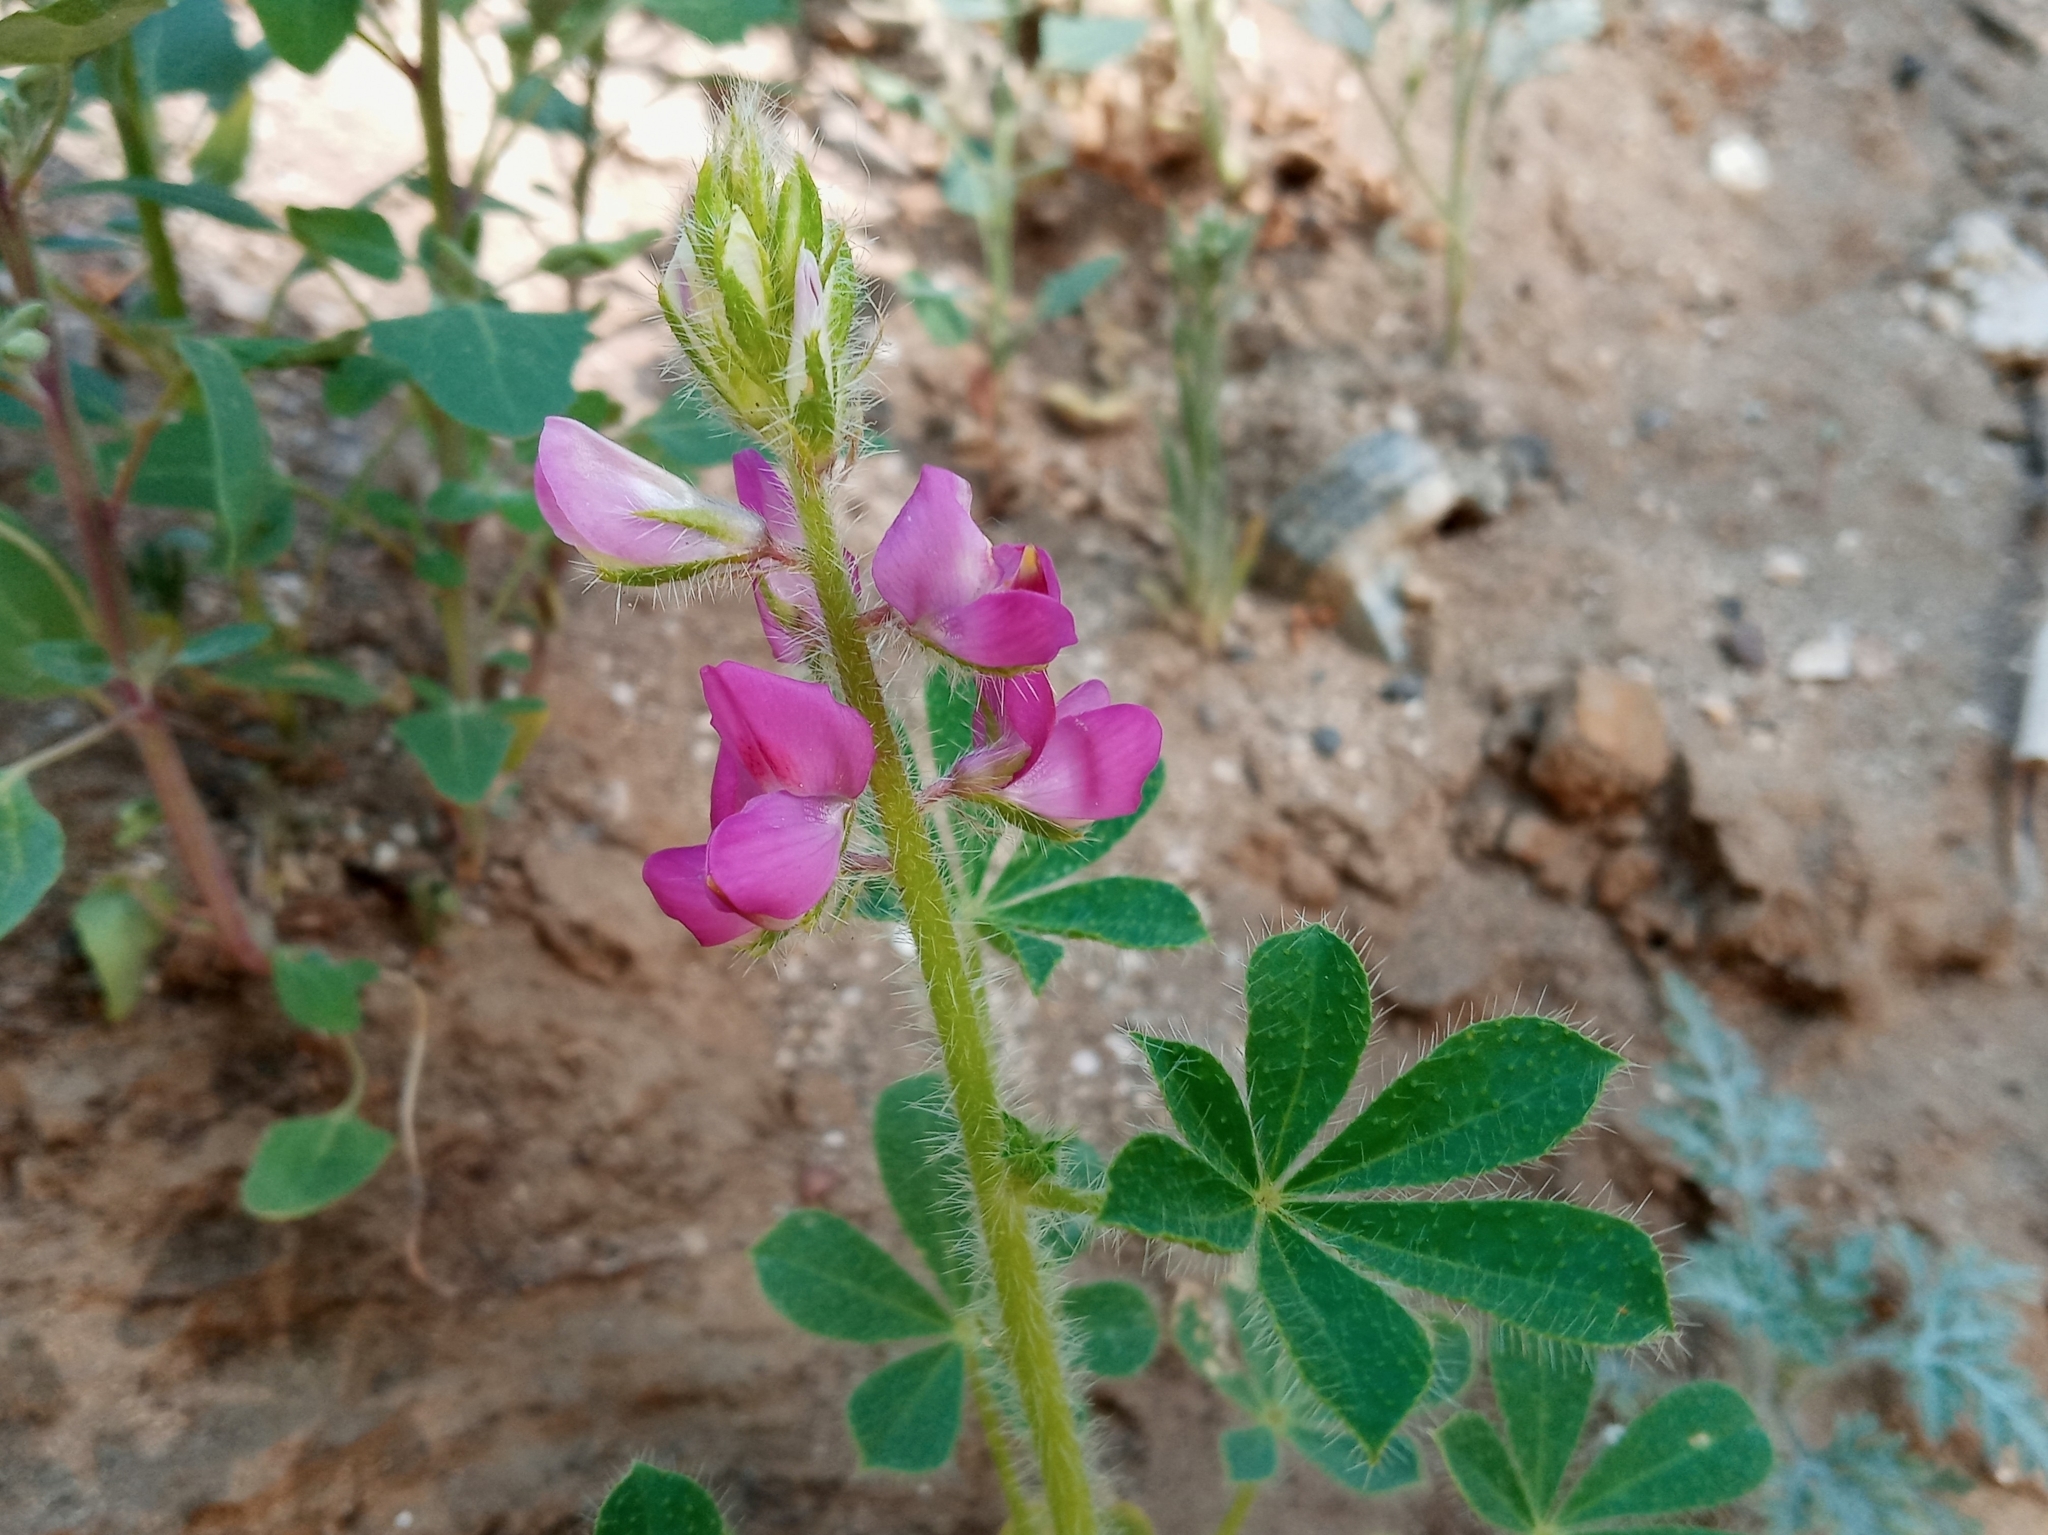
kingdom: Plantae
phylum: Tracheophyta
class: Magnoliopsida
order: Fabales
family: Fabaceae
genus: Lupinus
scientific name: Lupinus hirsutissimus
